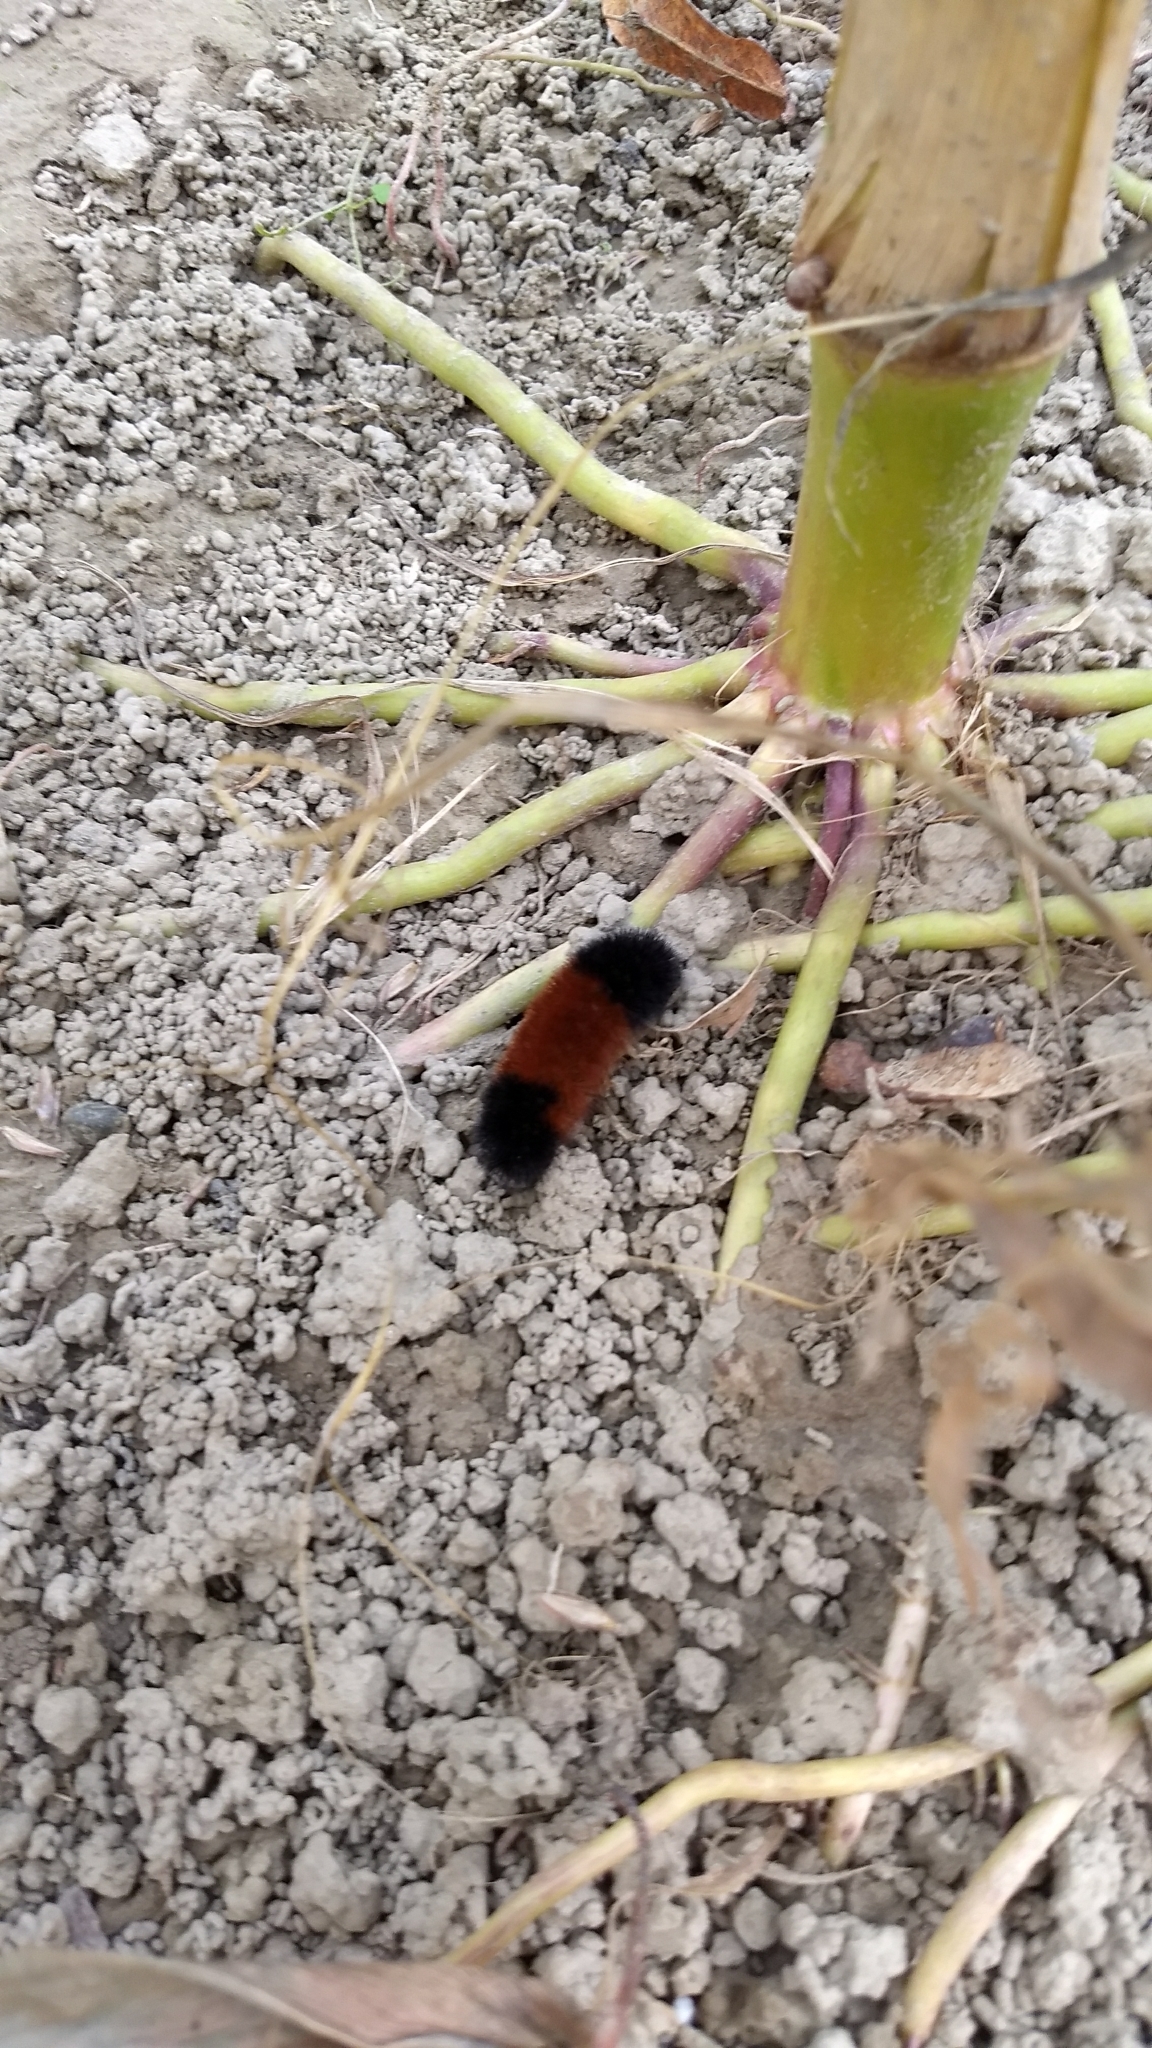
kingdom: Animalia
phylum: Arthropoda
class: Insecta
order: Lepidoptera
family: Erebidae
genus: Pyrrharctia
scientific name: Pyrrharctia isabella
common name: Isabella tiger moth
